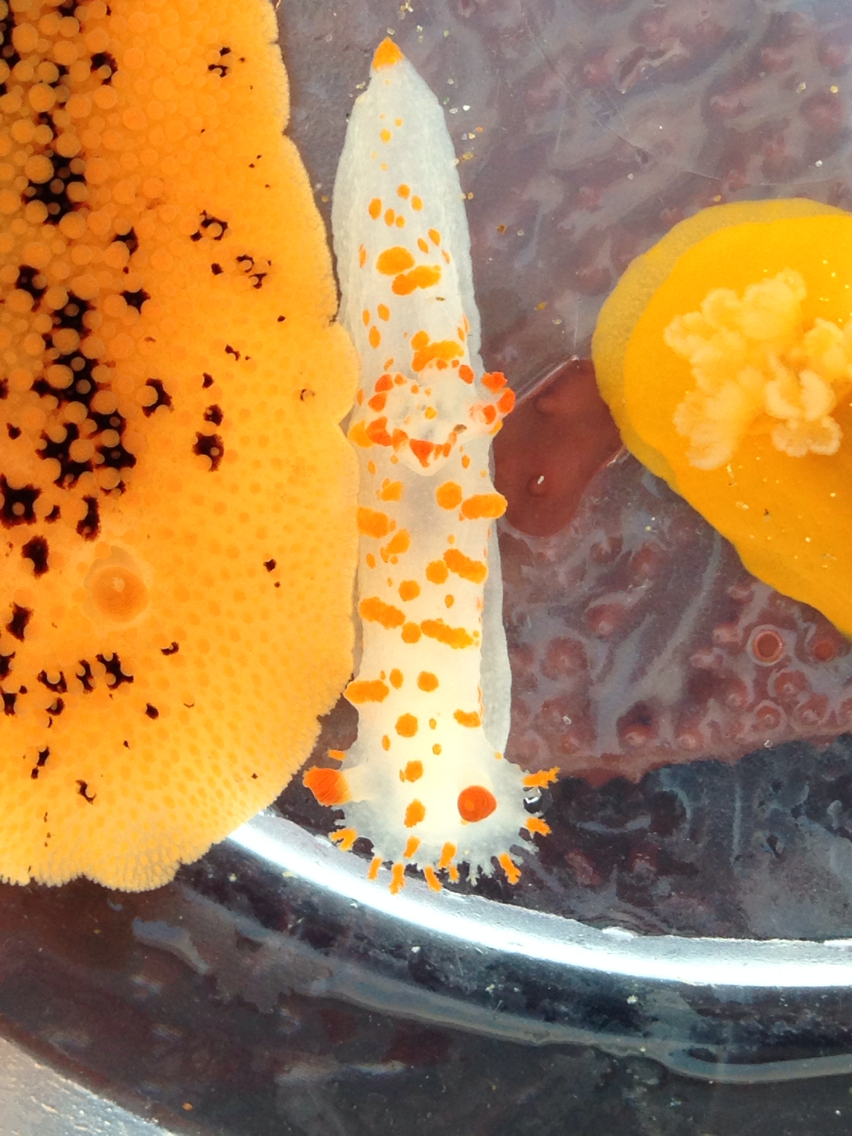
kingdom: Animalia
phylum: Mollusca
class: Gastropoda
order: Nudibranchia
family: Polyceridae
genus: Triopha
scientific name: Triopha catalinae
